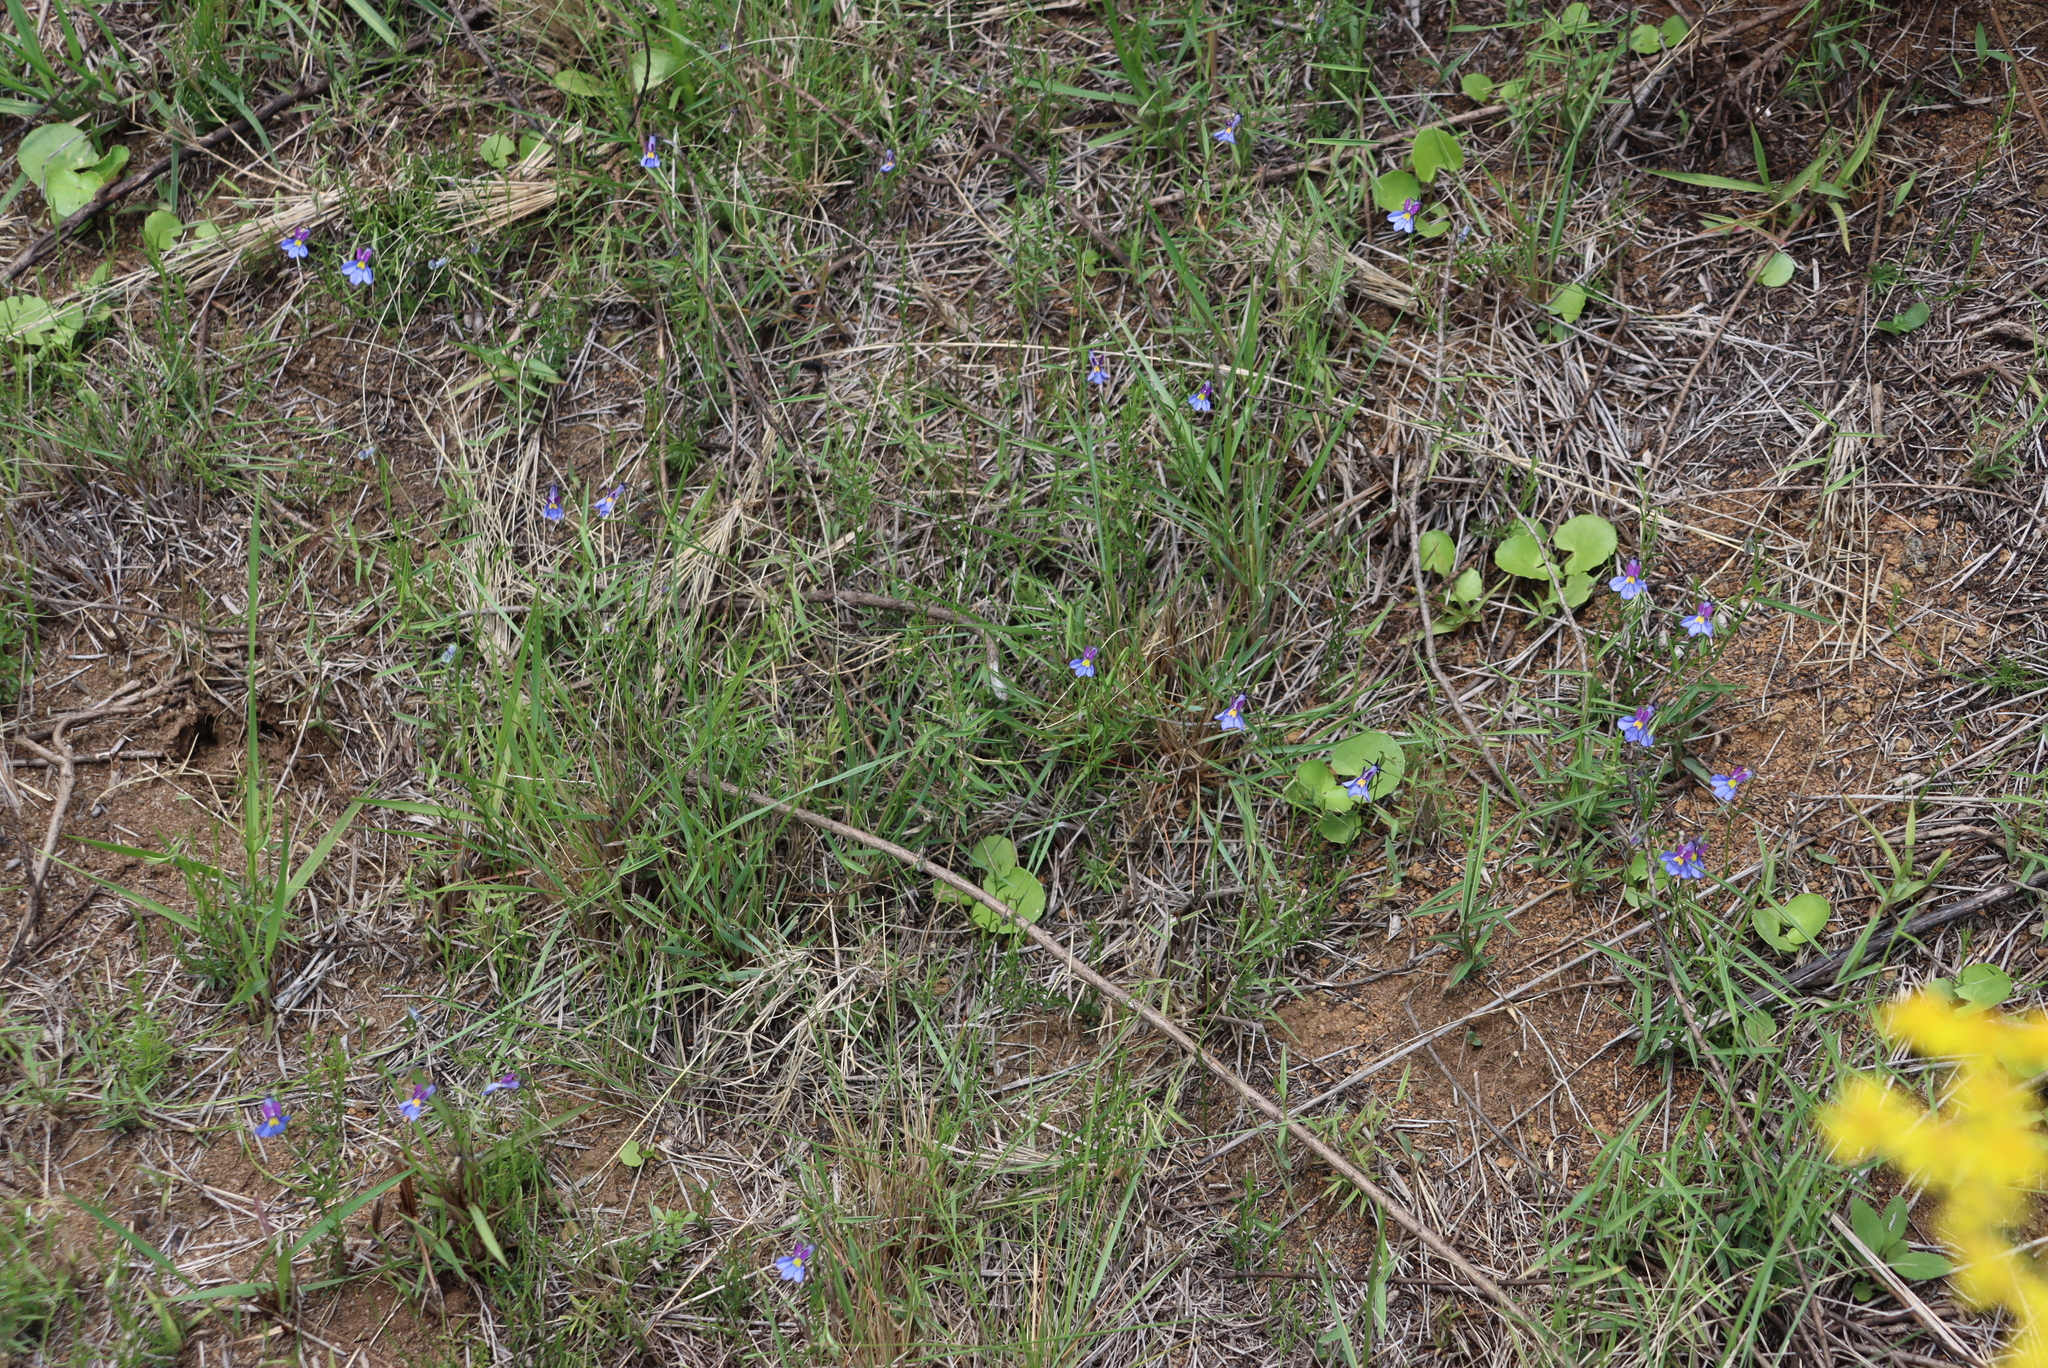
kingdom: Plantae
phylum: Tracheophyta
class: Magnoliopsida
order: Asterales
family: Campanulaceae
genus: Monopsis
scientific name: Monopsis decipiens
